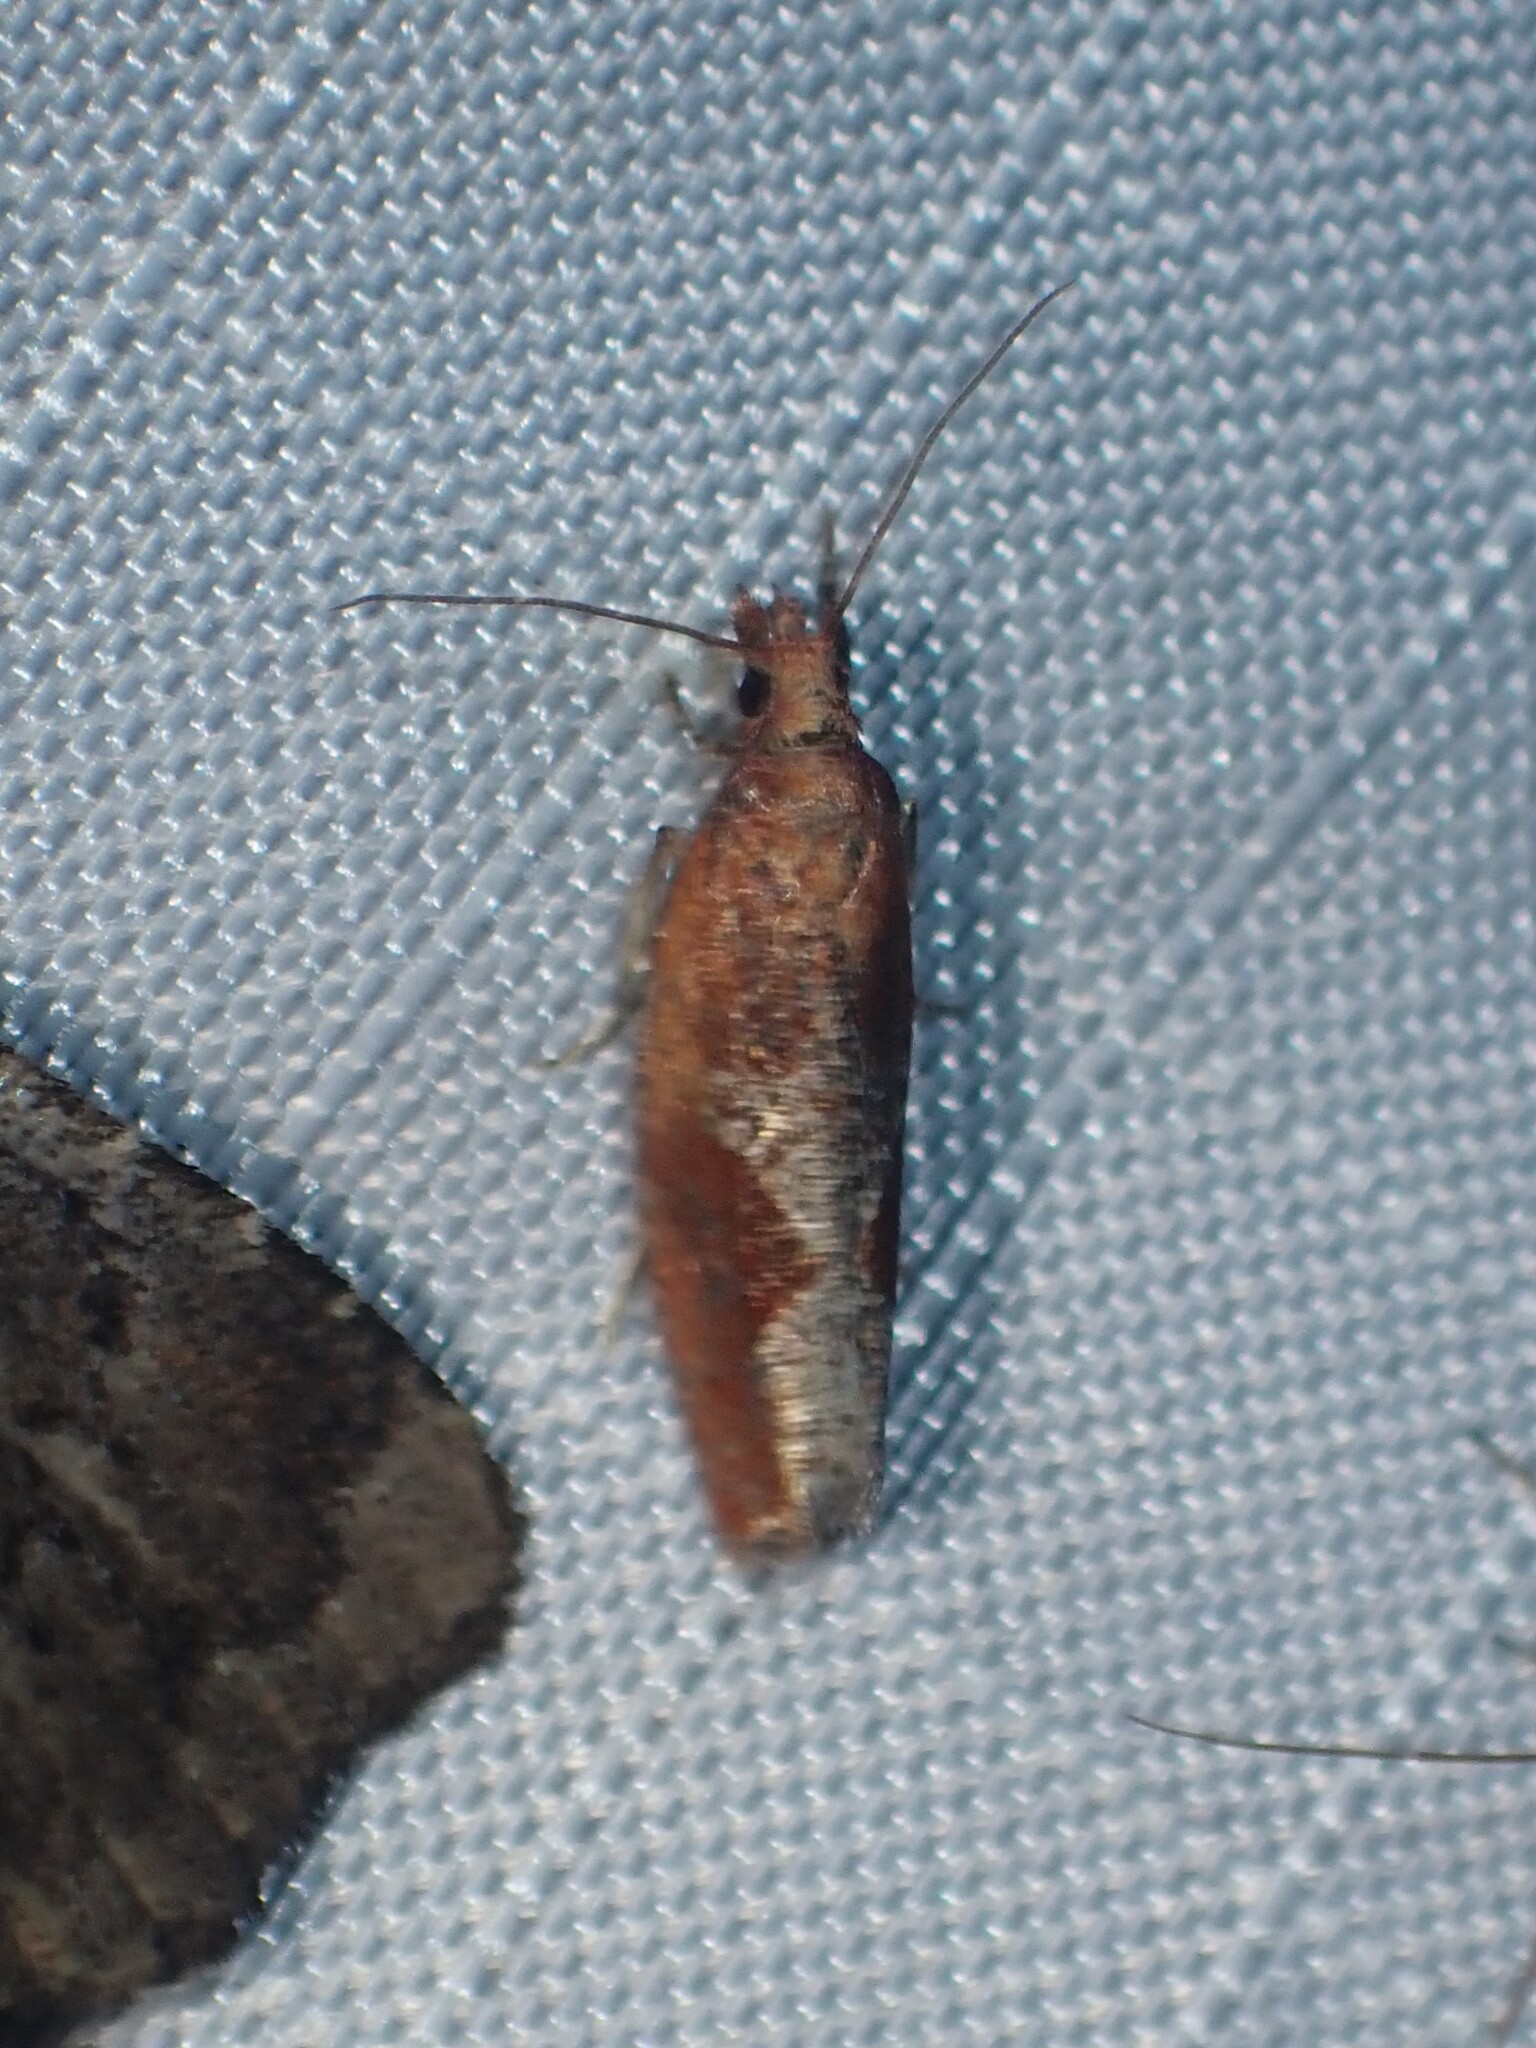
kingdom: Animalia
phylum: Arthropoda
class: Insecta
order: Lepidoptera
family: Tortricidae
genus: Epinotia
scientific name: Epinotia septemberana
